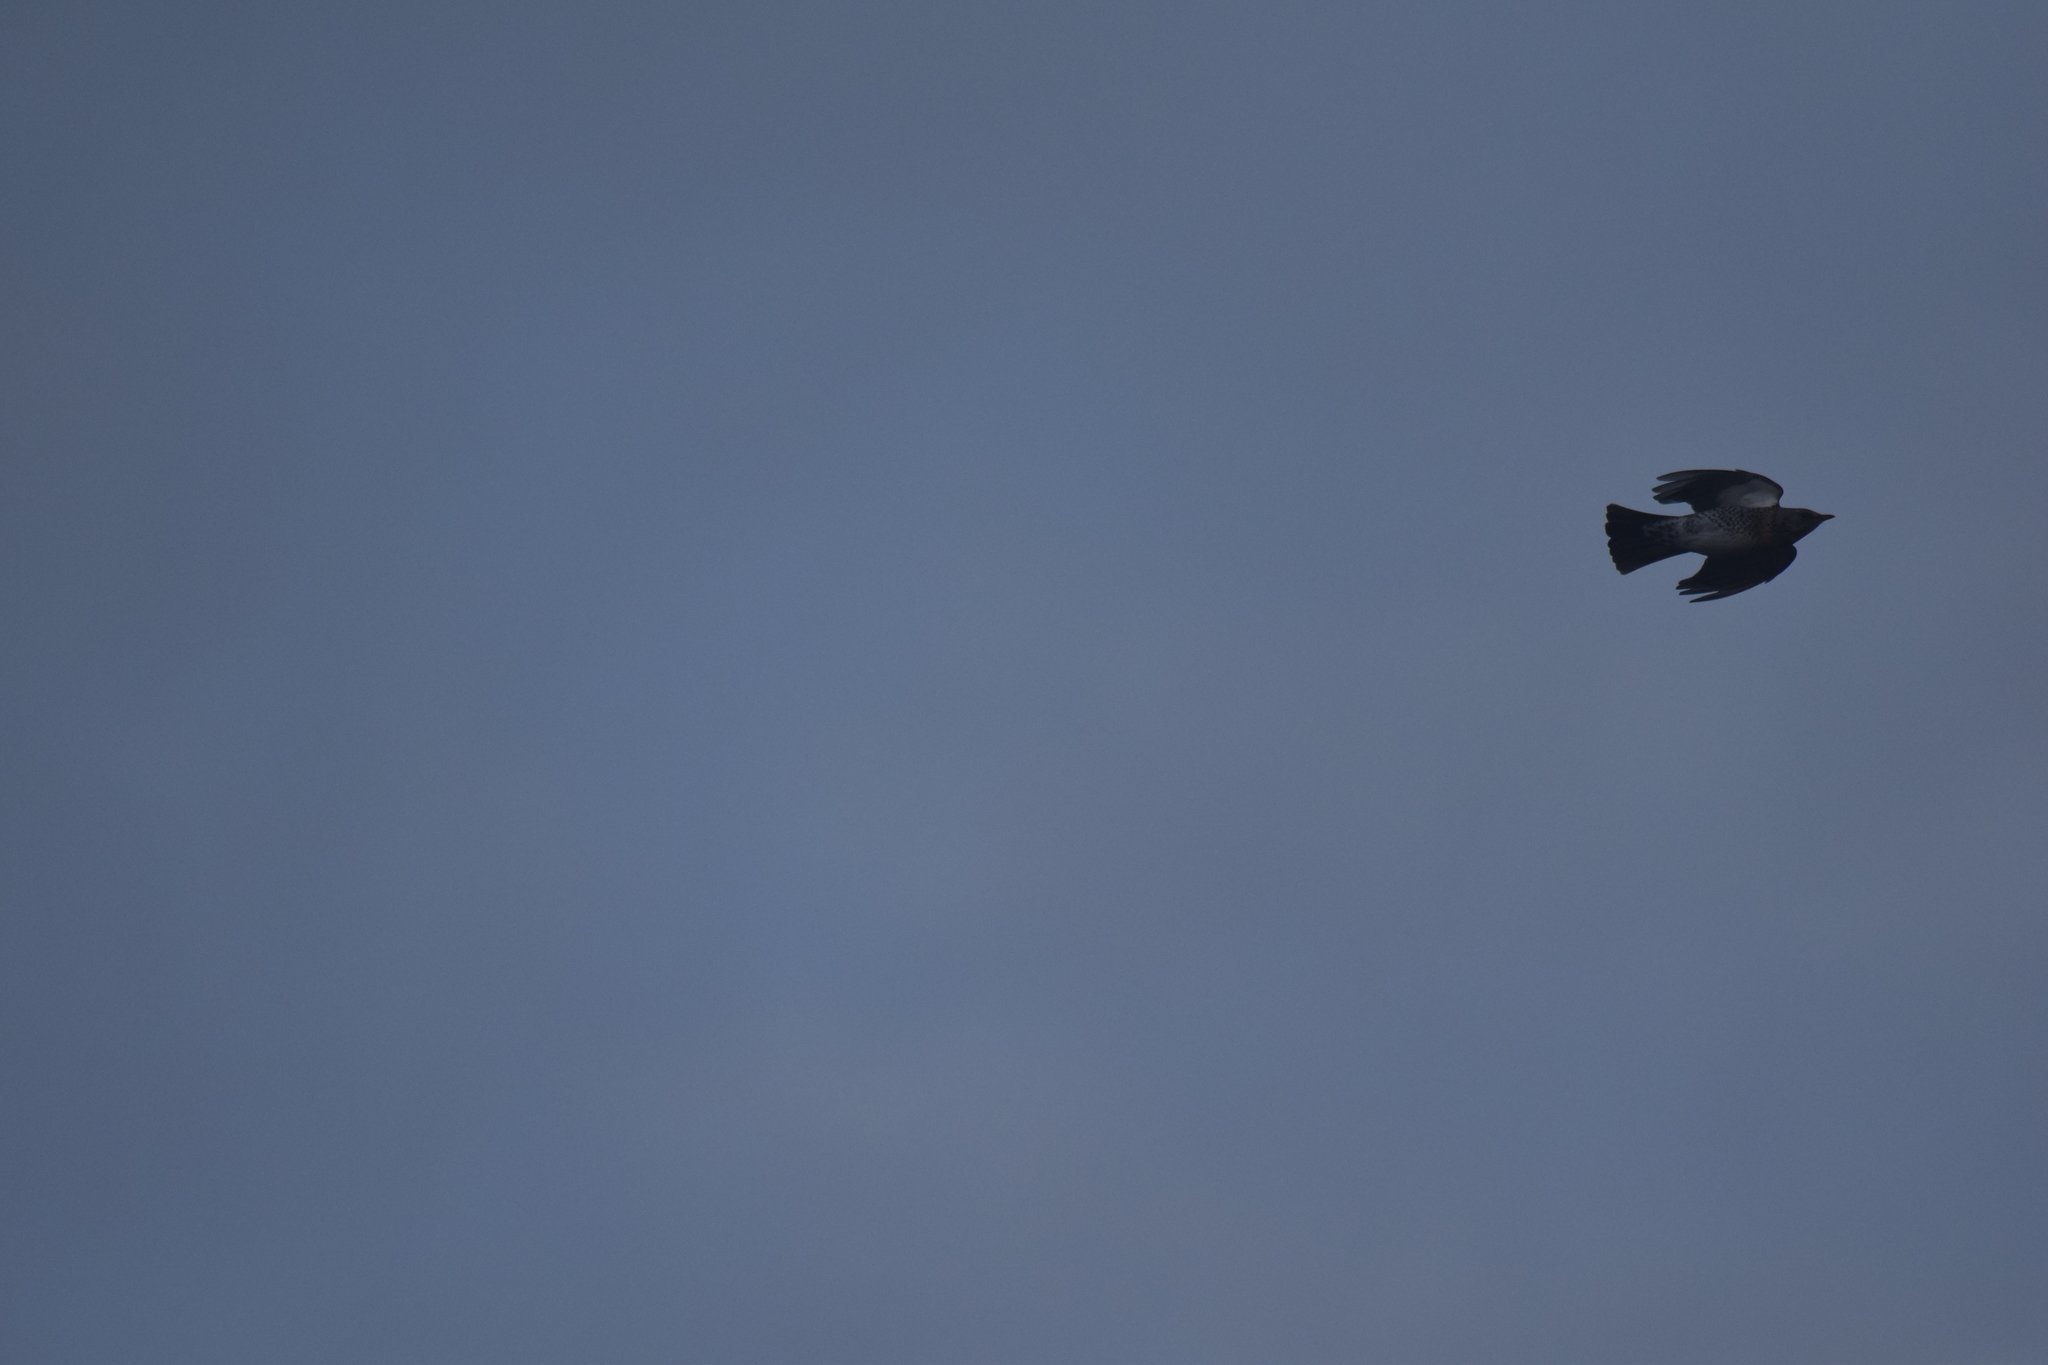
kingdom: Animalia
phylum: Chordata
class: Aves
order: Passeriformes
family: Turdidae
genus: Turdus
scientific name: Turdus pilaris
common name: Fieldfare
